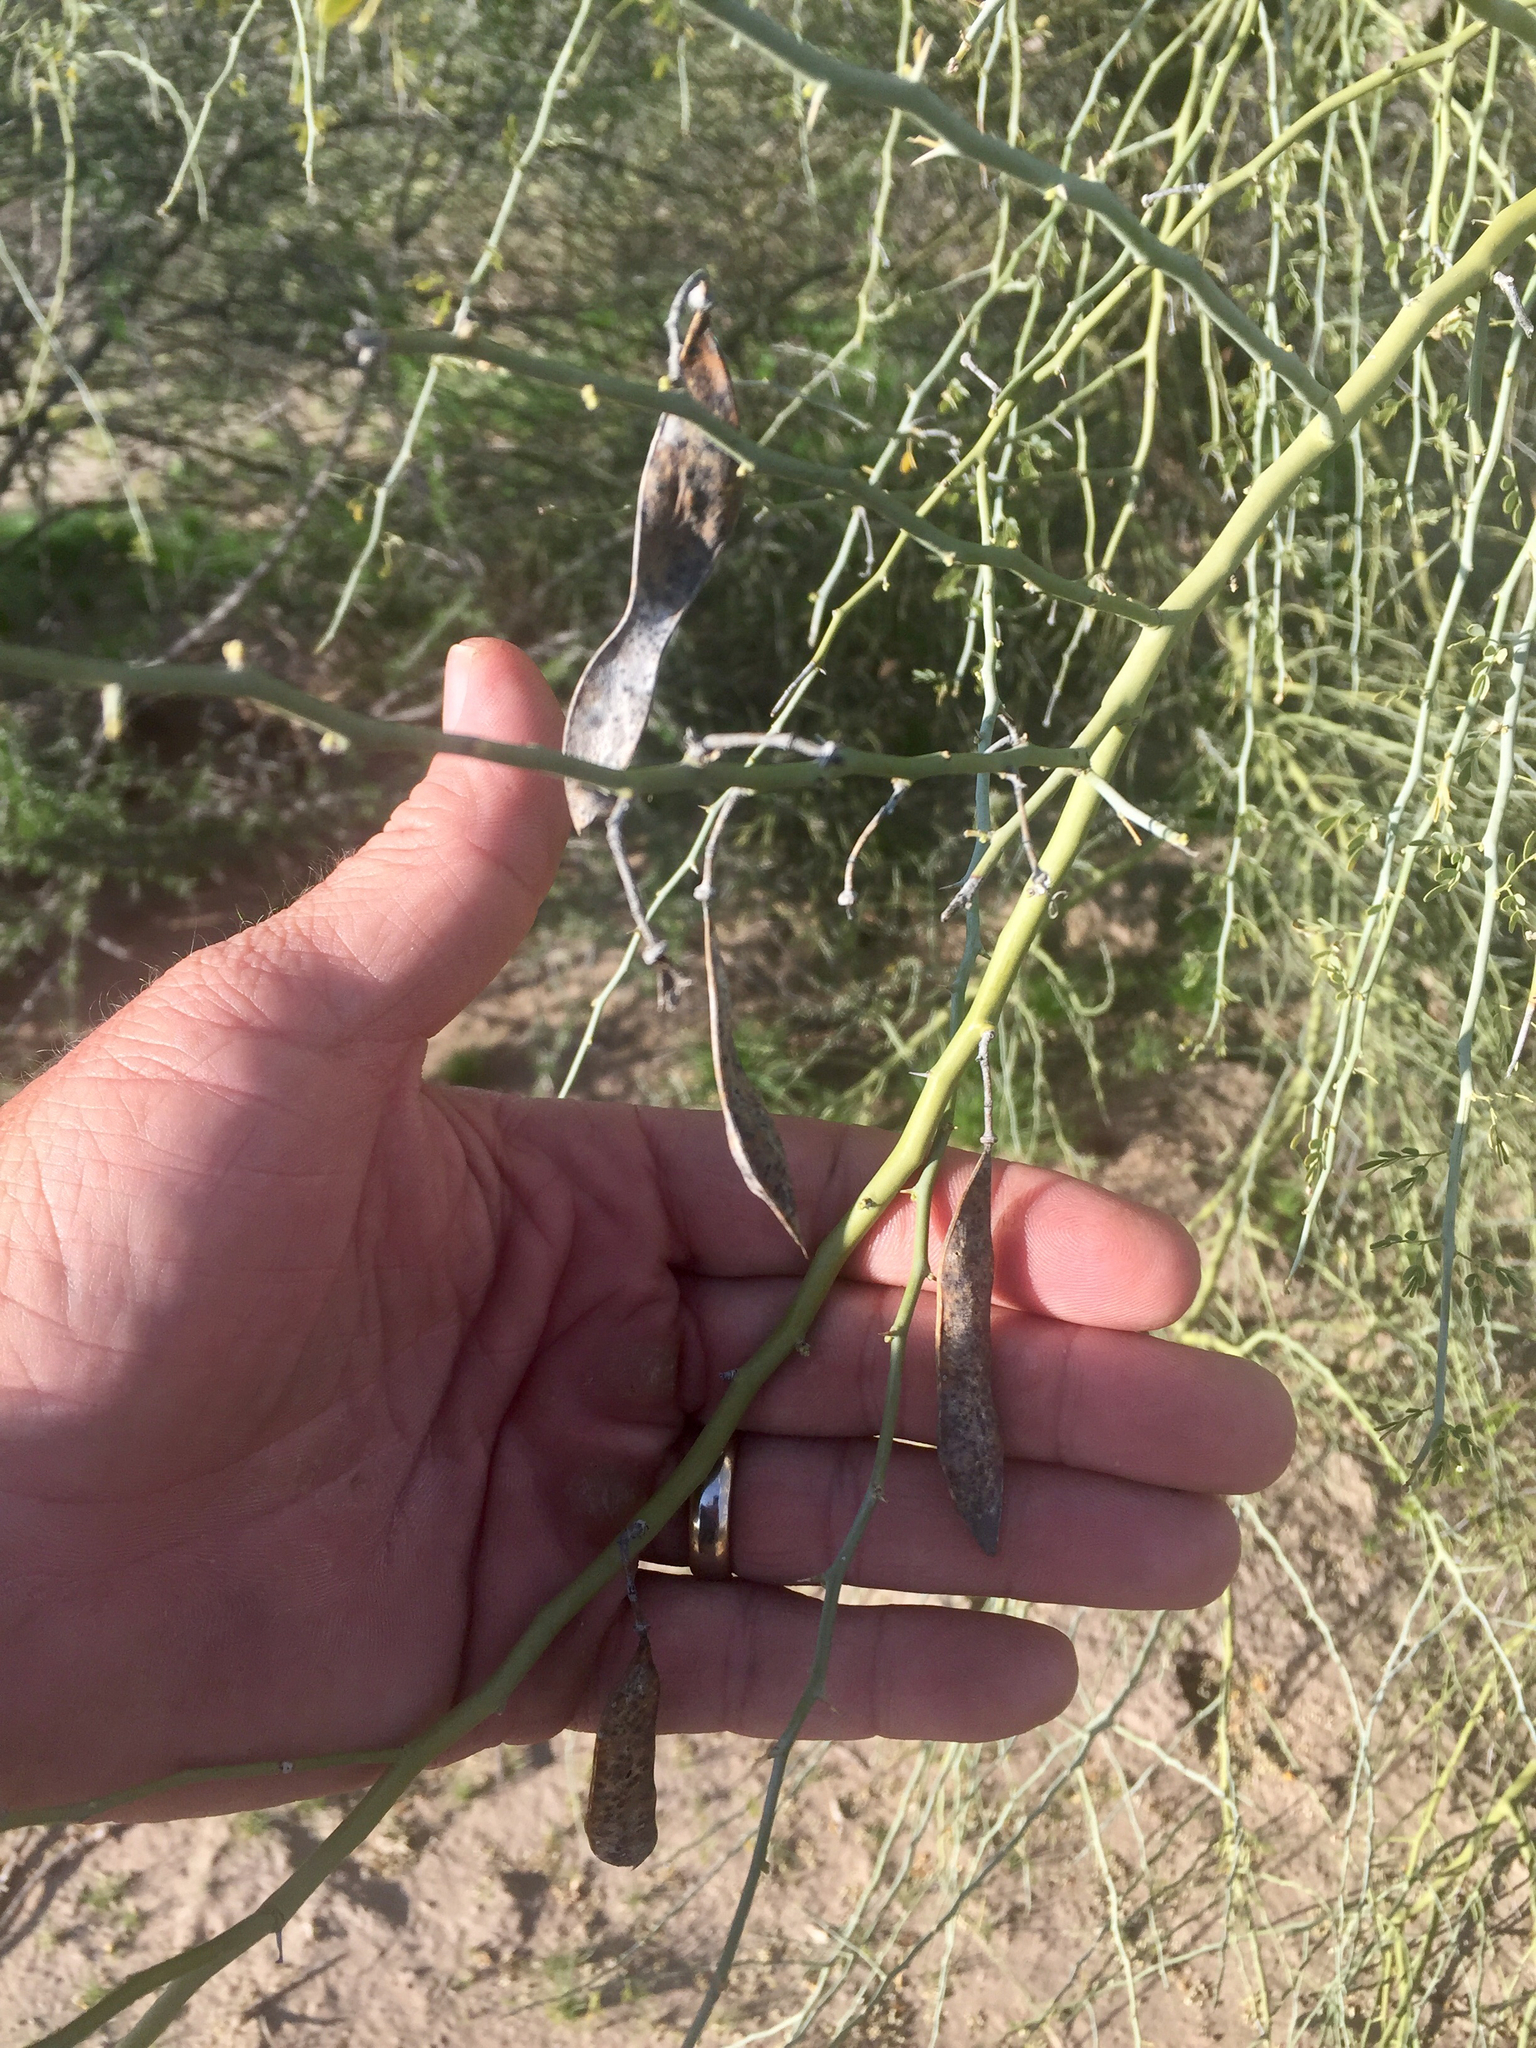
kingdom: Plantae
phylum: Tracheophyta
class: Magnoliopsida
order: Fabales
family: Fabaceae
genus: Parkinsonia
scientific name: Parkinsonia florida
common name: Blue paloverde
